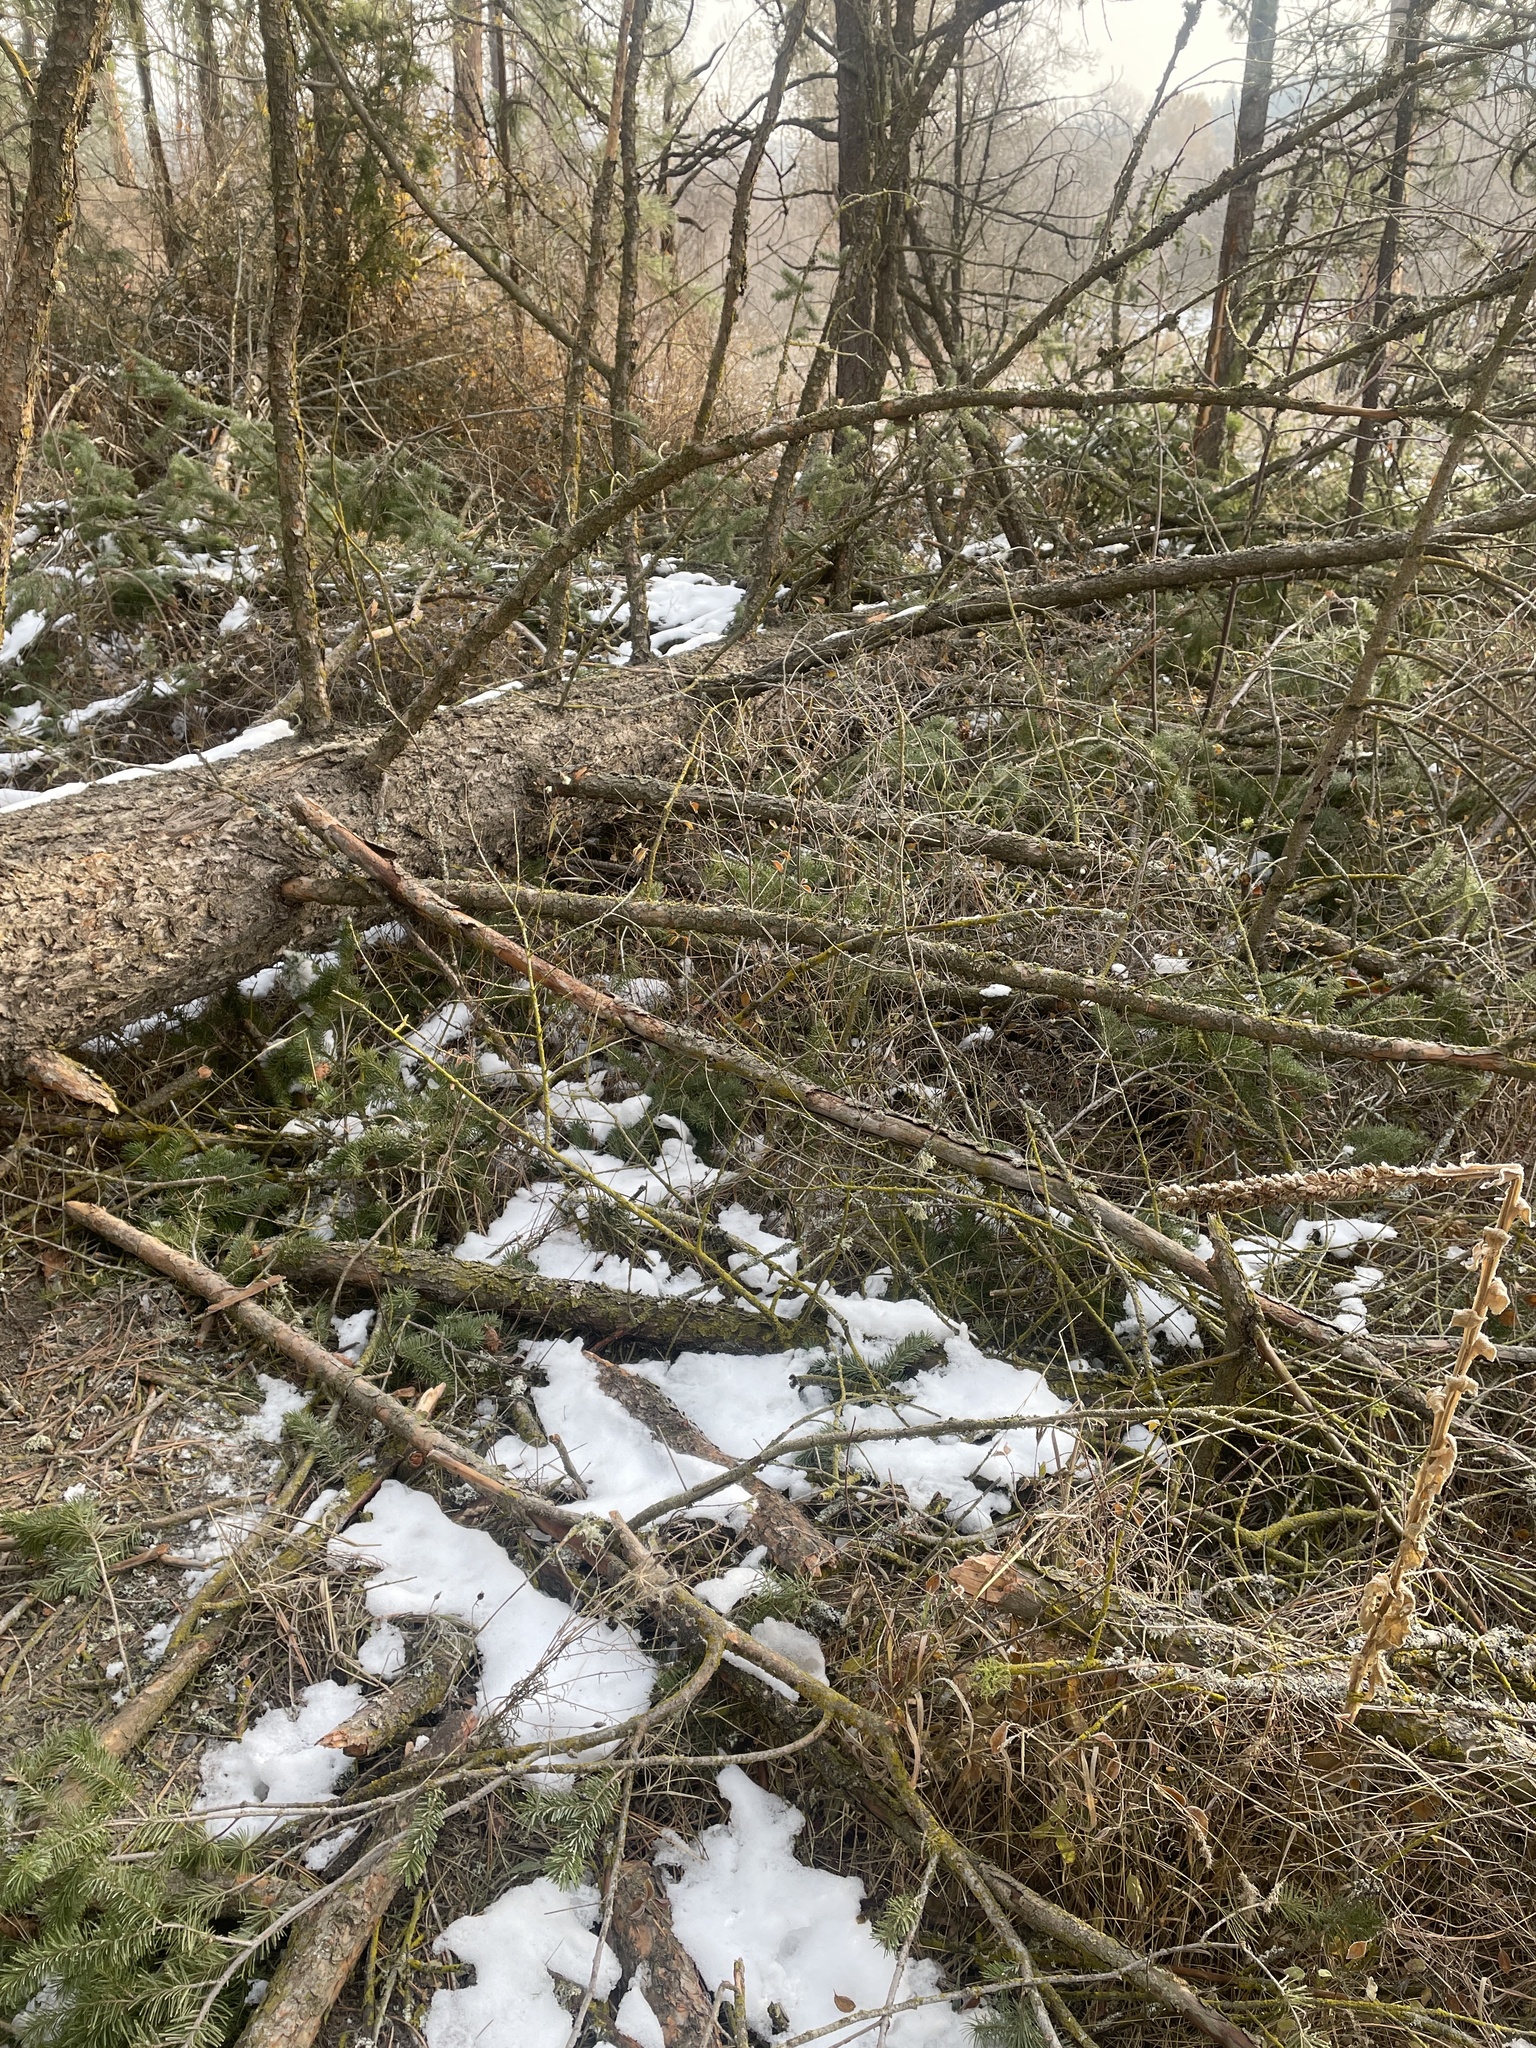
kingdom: Plantae
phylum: Tracheophyta
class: Pinopsida
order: Pinales
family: Pinaceae
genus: Pseudotsuga
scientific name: Pseudotsuga menziesii
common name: Douglas fir
